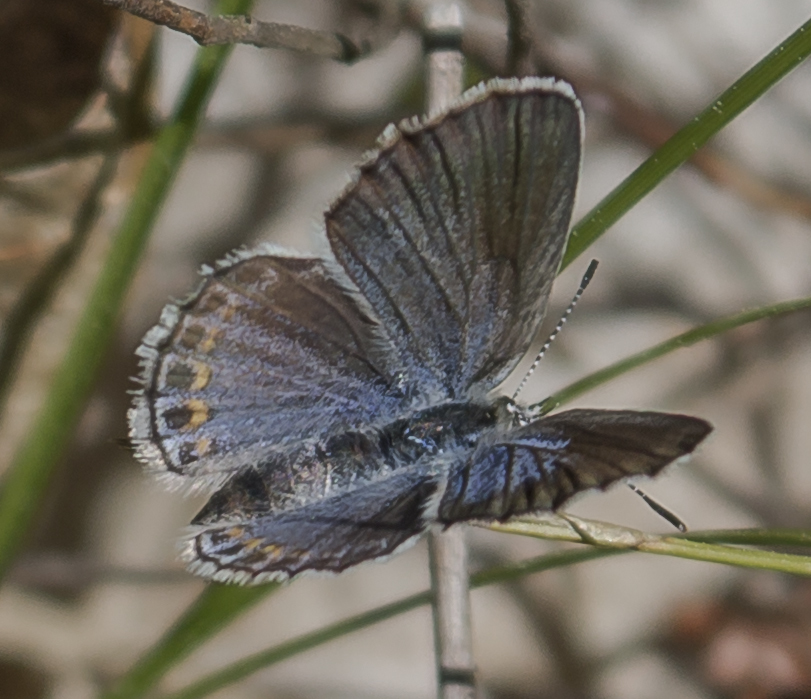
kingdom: Animalia
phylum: Arthropoda
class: Insecta
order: Lepidoptera
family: Lycaenidae
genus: Plebejus
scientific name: Plebejus samuelis
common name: Karner blue
